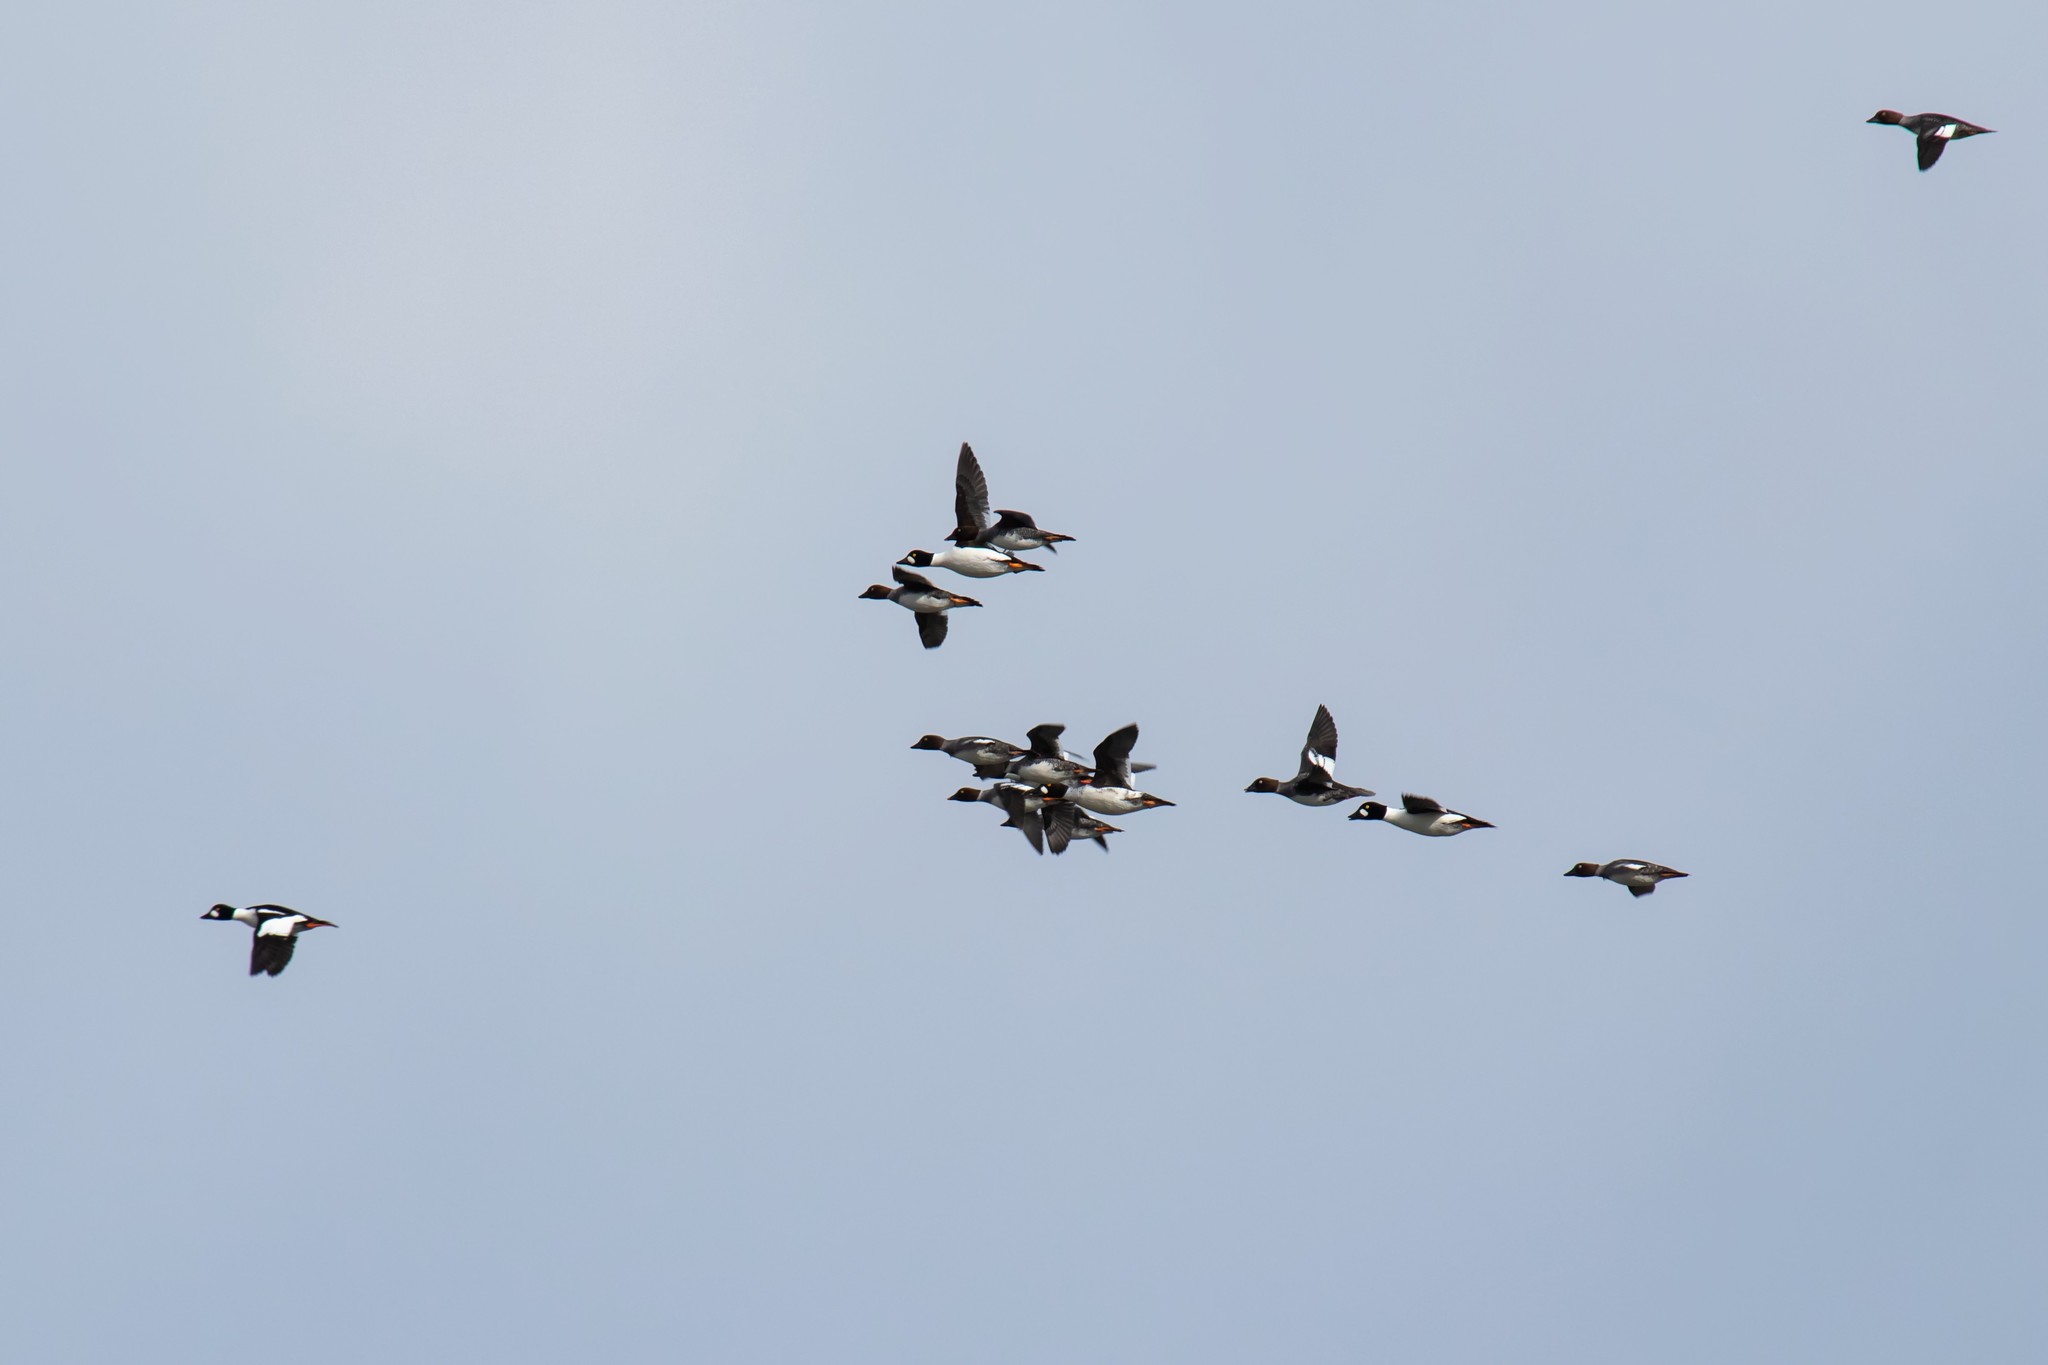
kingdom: Animalia
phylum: Chordata
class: Aves
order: Anseriformes
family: Anatidae
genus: Bucephala
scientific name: Bucephala clangula
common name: Common goldeneye
